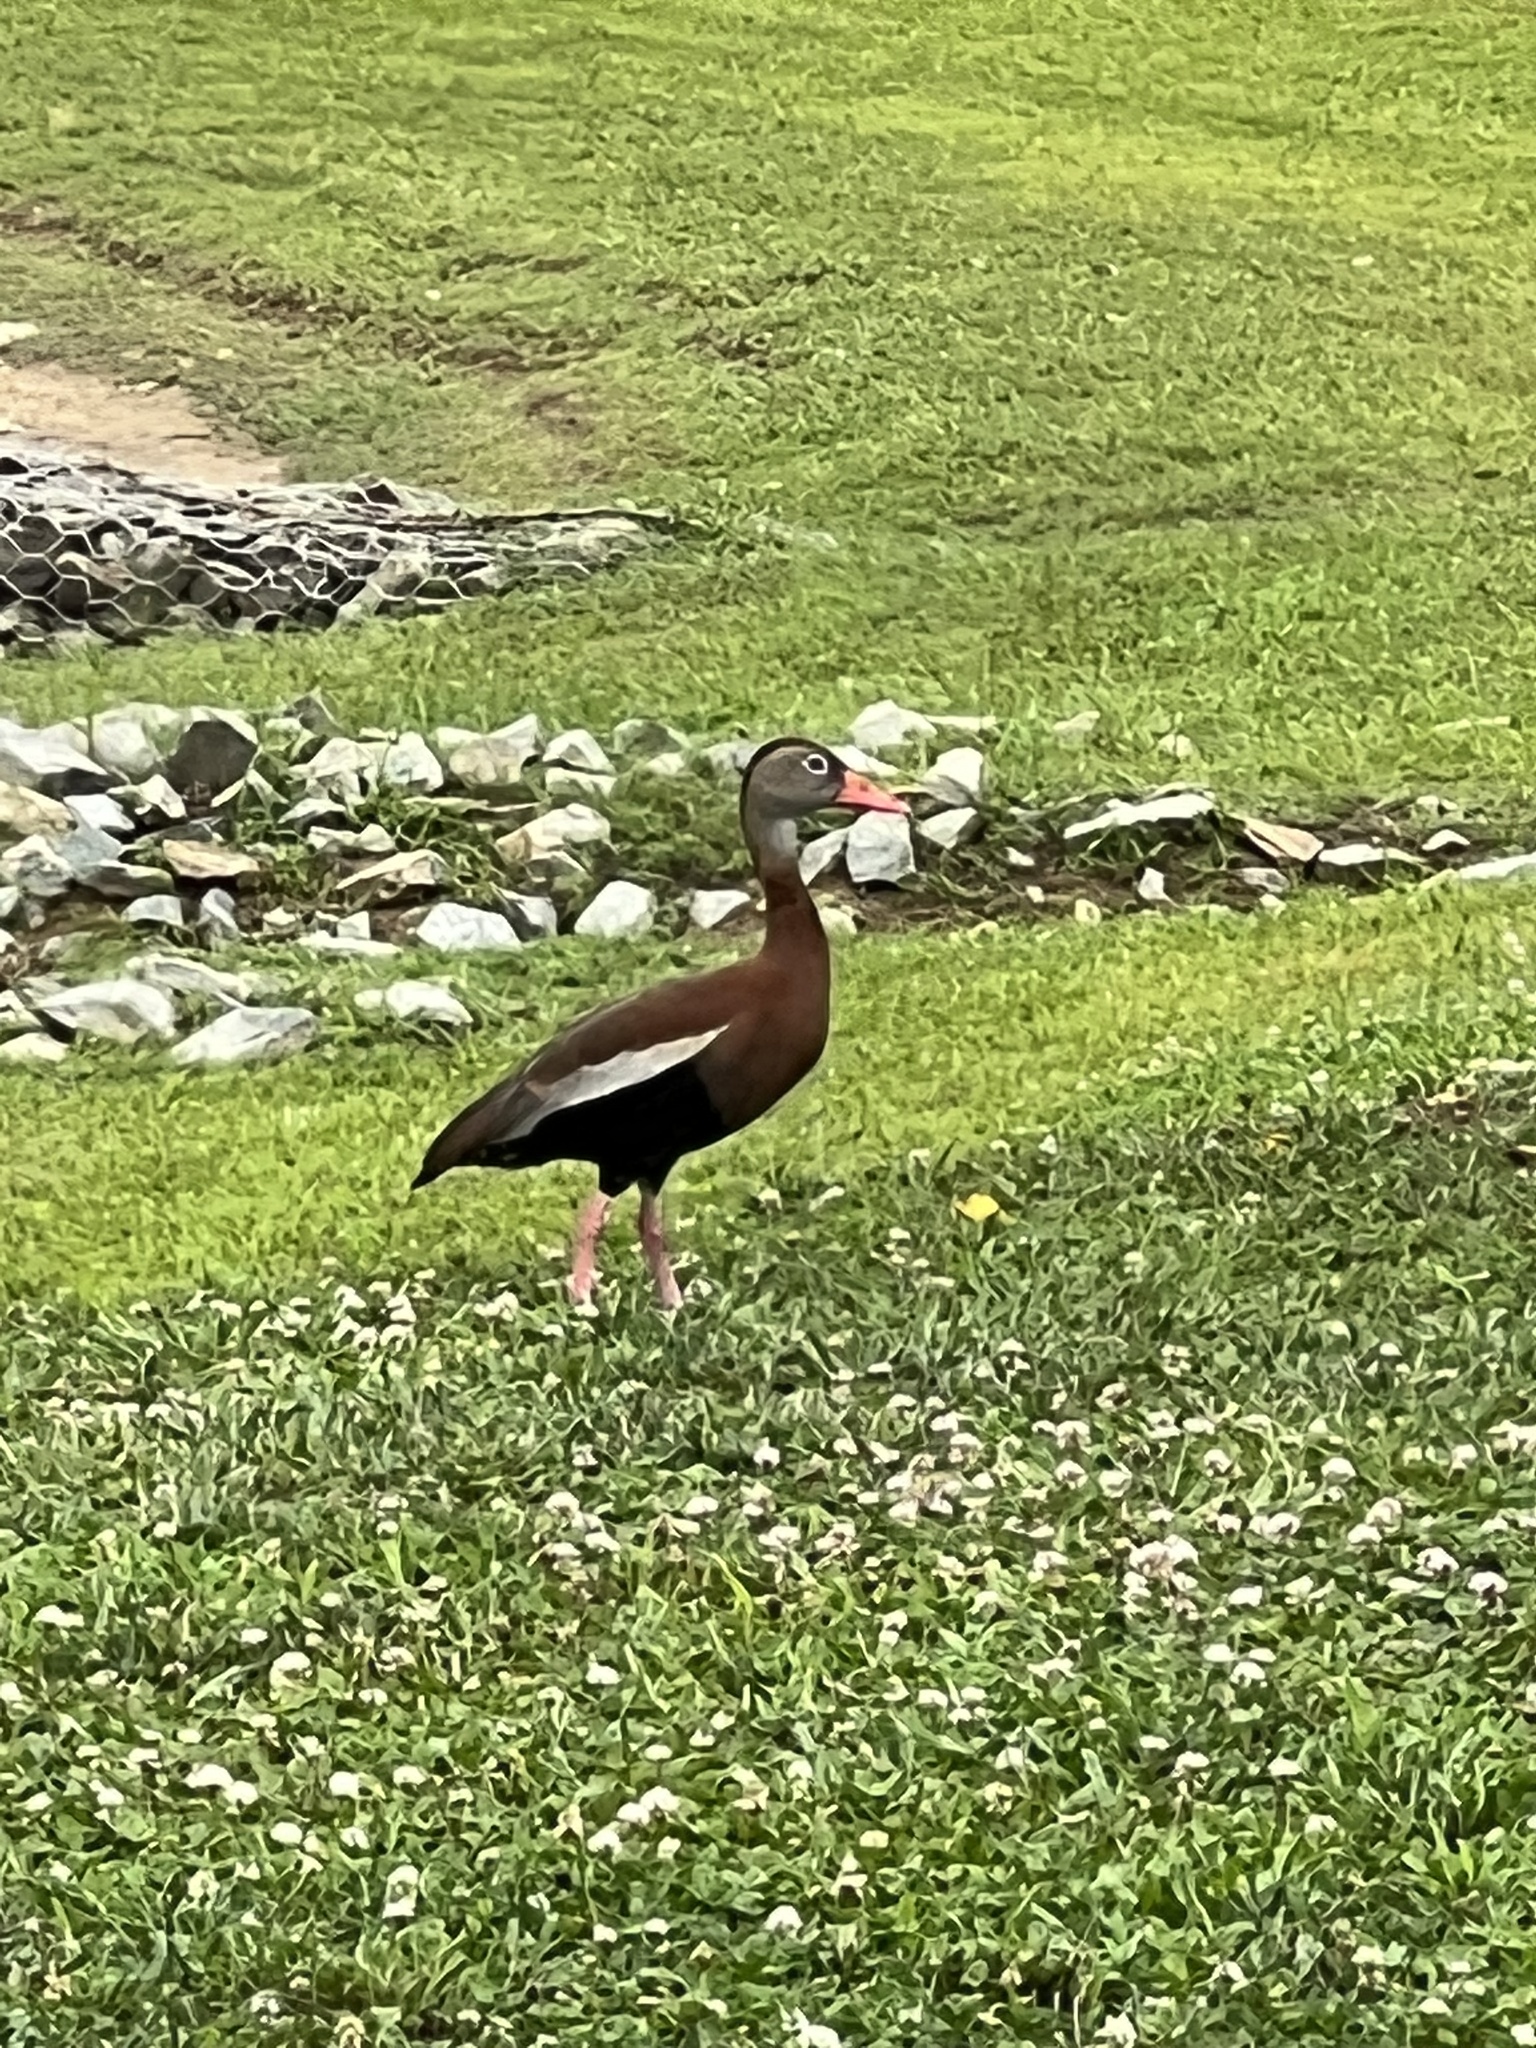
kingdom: Animalia
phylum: Chordata
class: Aves
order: Anseriformes
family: Anatidae
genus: Dendrocygna
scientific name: Dendrocygna autumnalis
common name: Black-bellied whistling duck
